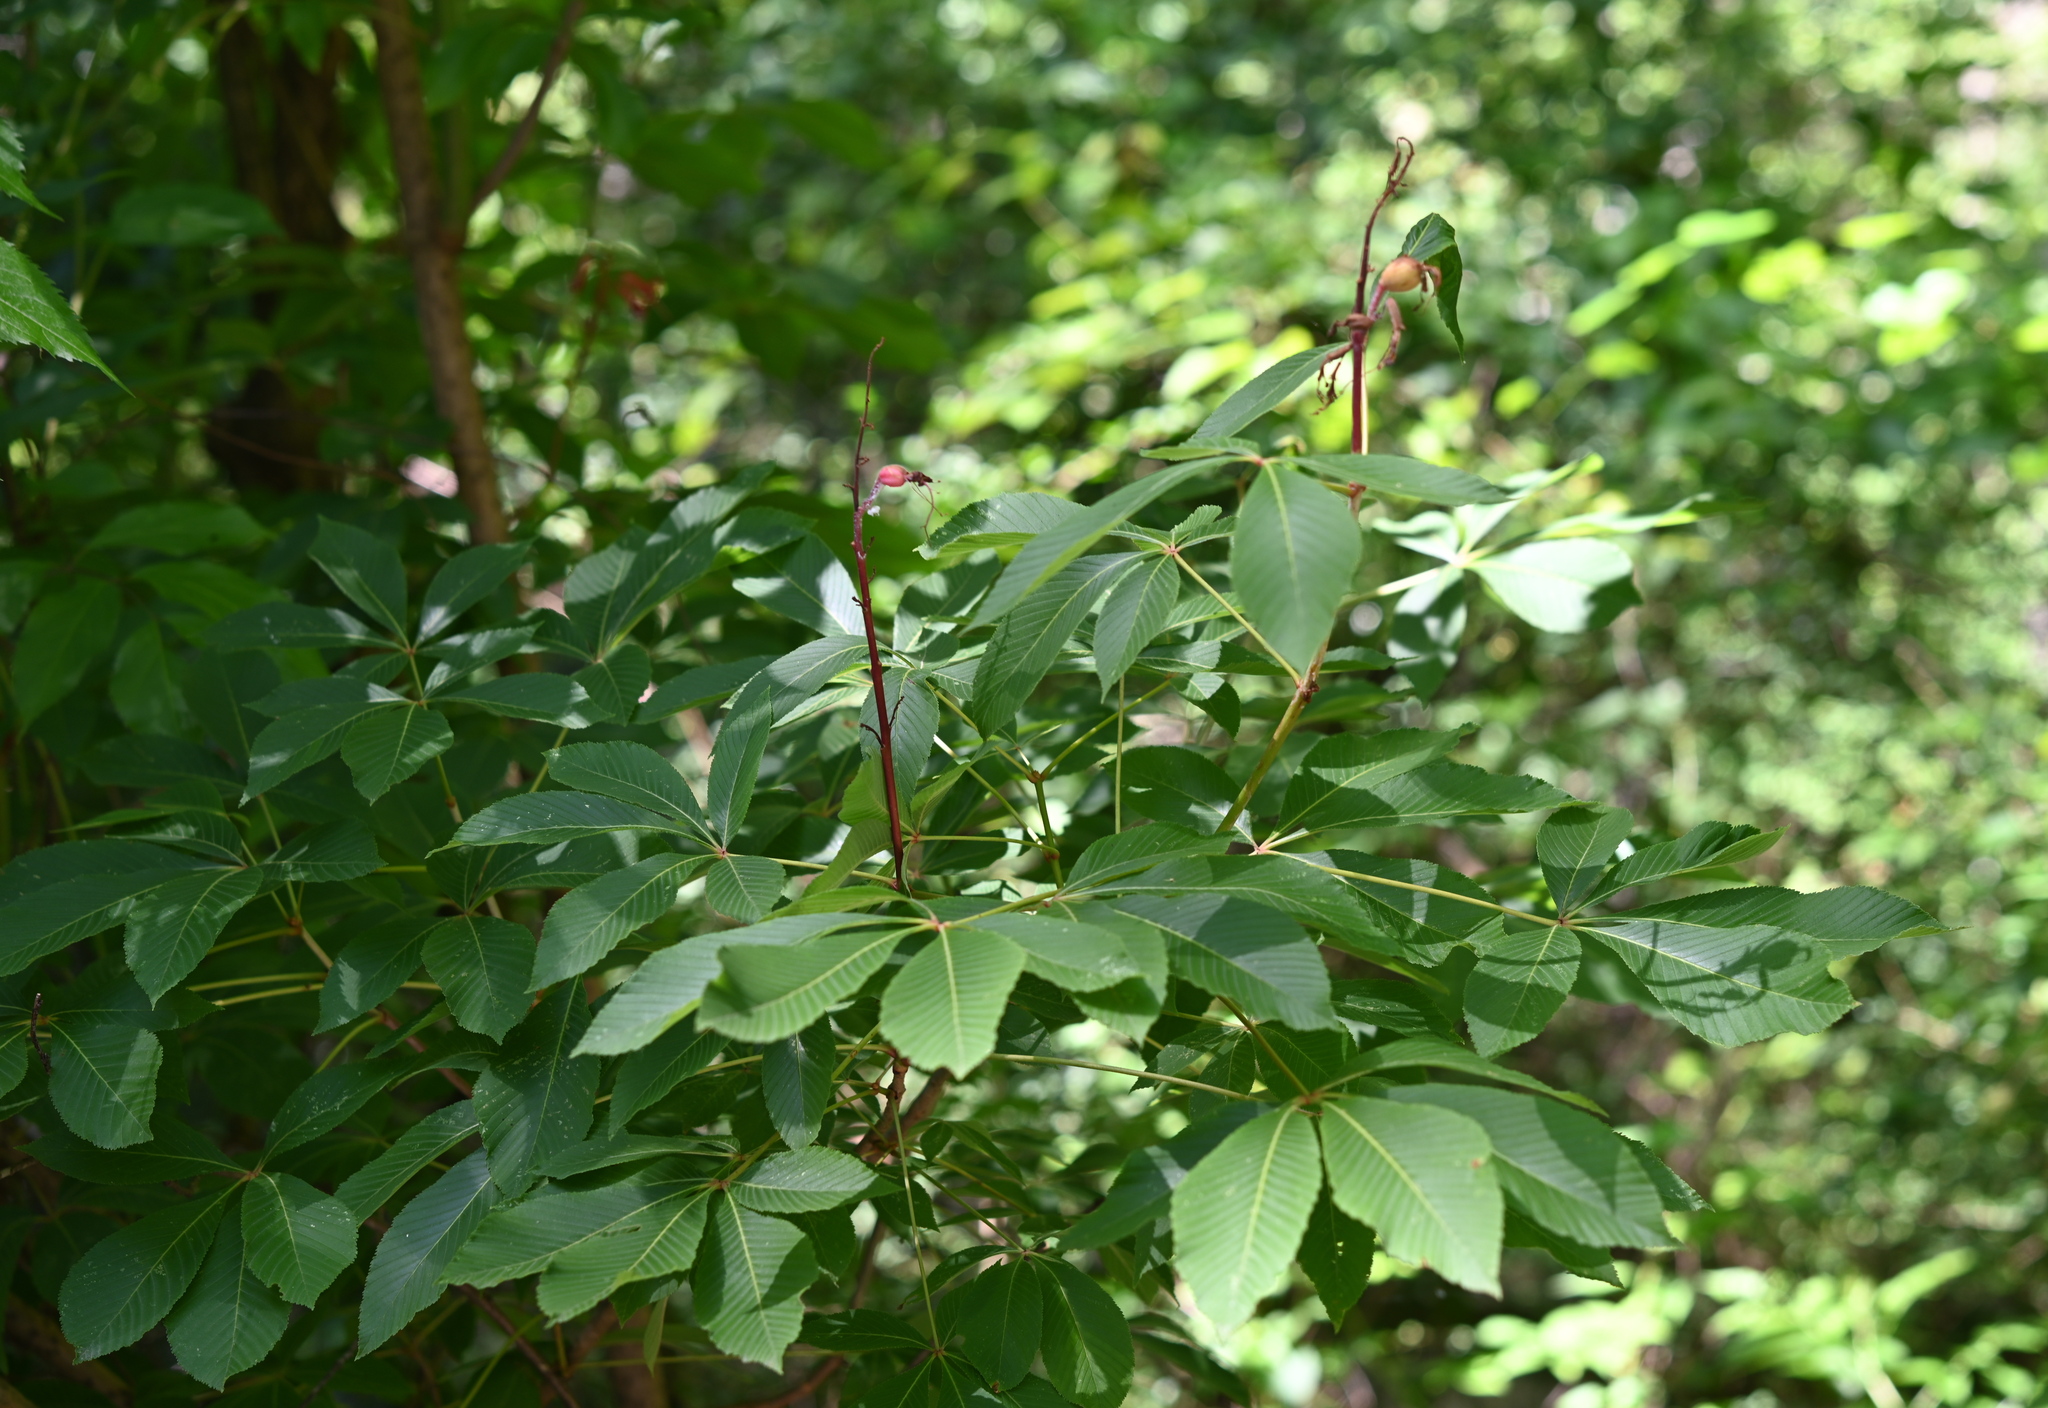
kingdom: Plantae
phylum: Tracheophyta
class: Magnoliopsida
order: Sapindales
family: Sapindaceae
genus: Aesculus
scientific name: Aesculus pavia
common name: Red buckeye
